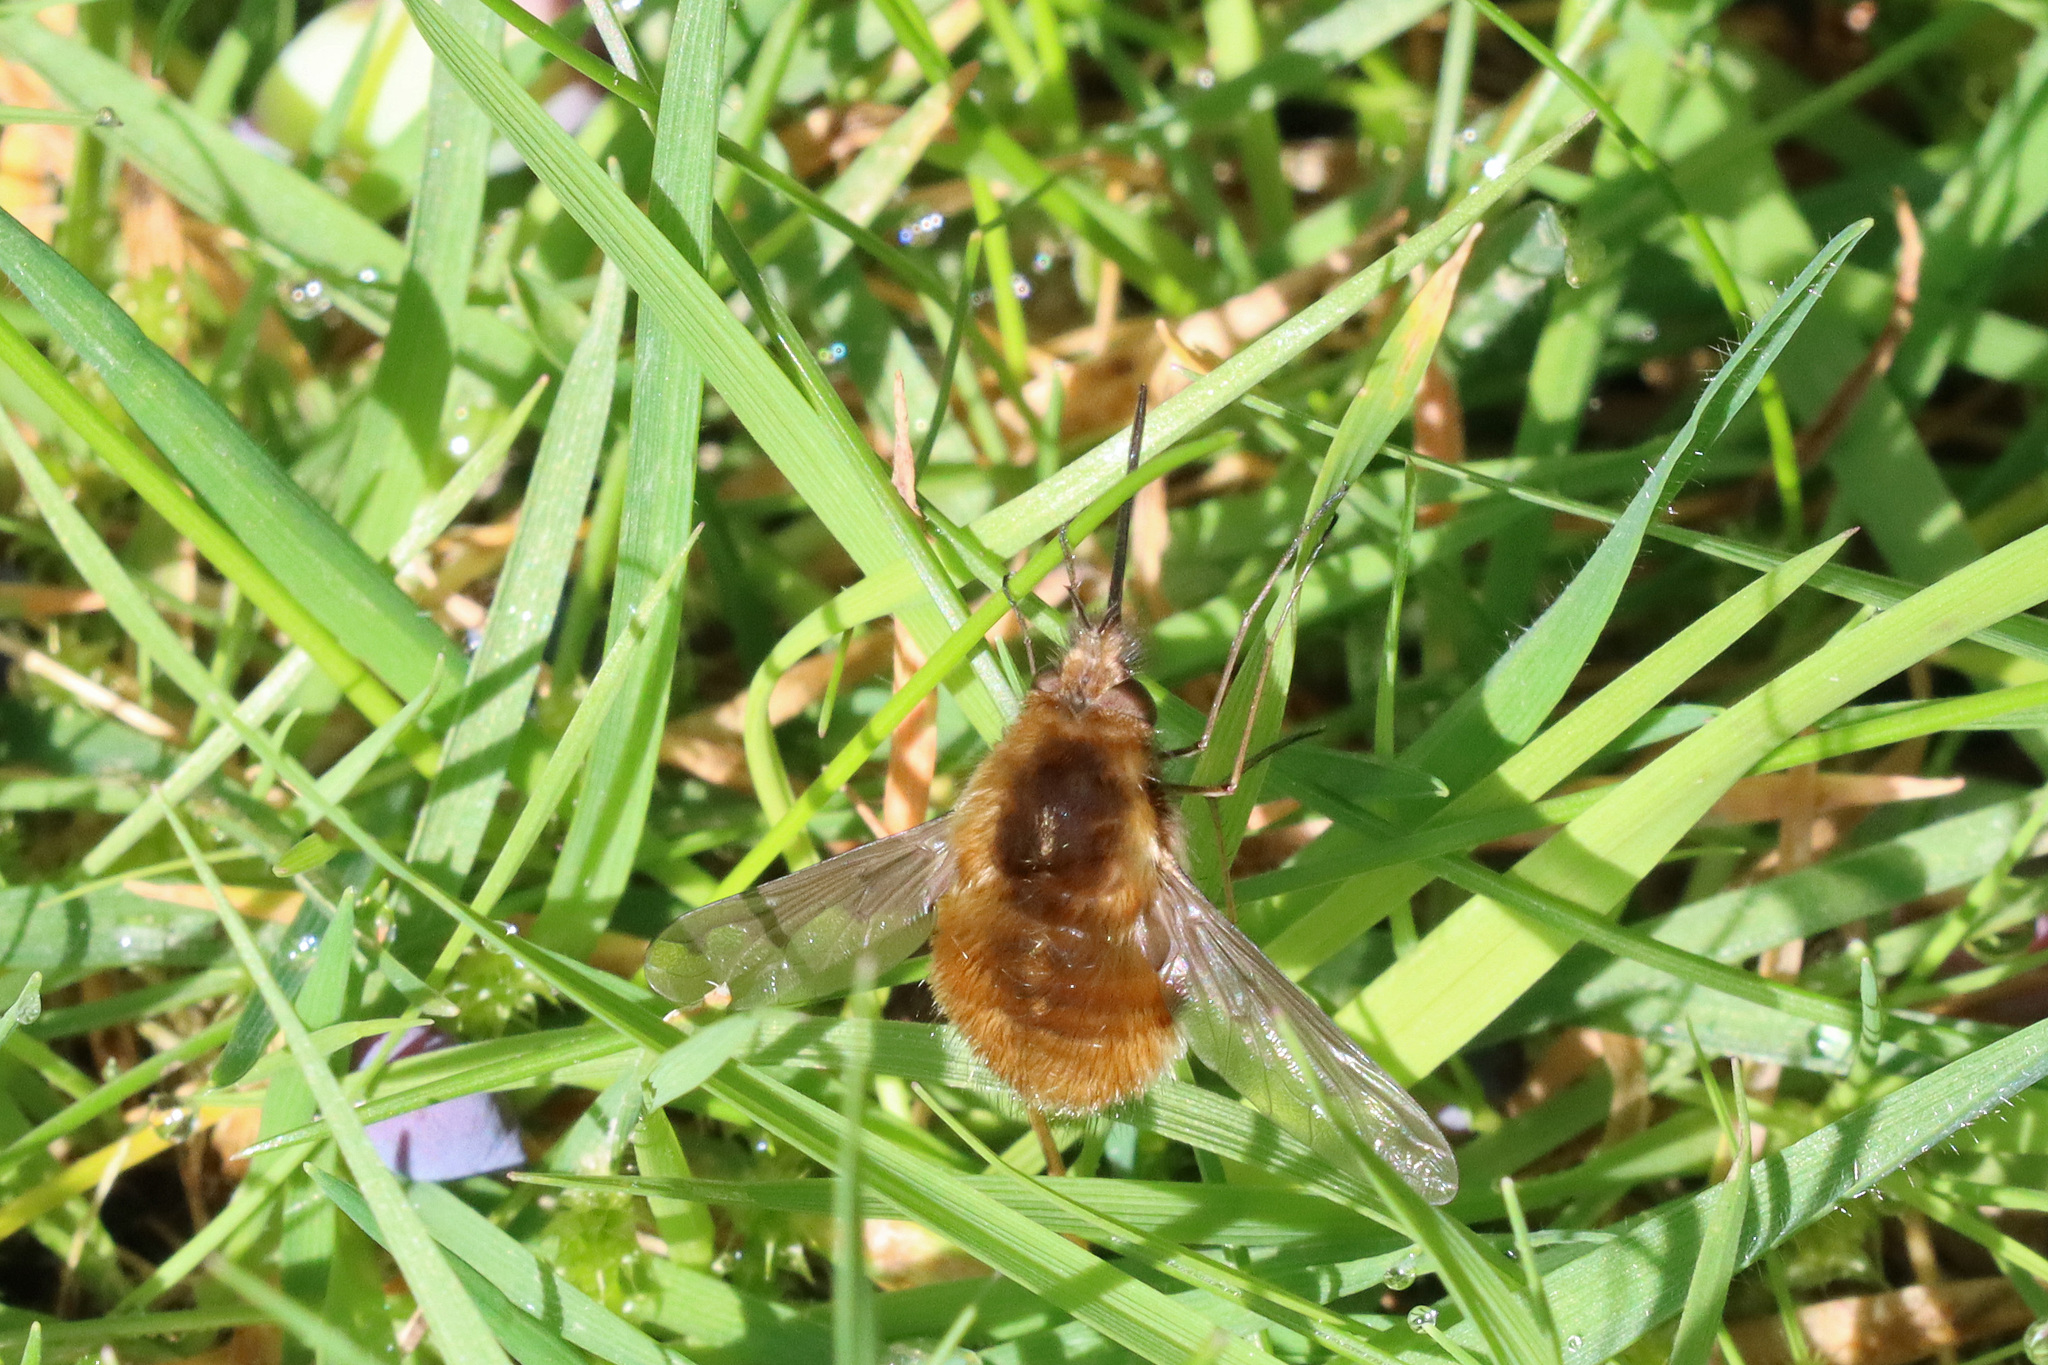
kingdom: Animalia
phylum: Arthropoda
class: Insecta
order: Diptera
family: Bombyliidae
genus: Bombylius
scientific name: Bombylius major
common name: Bee fly
